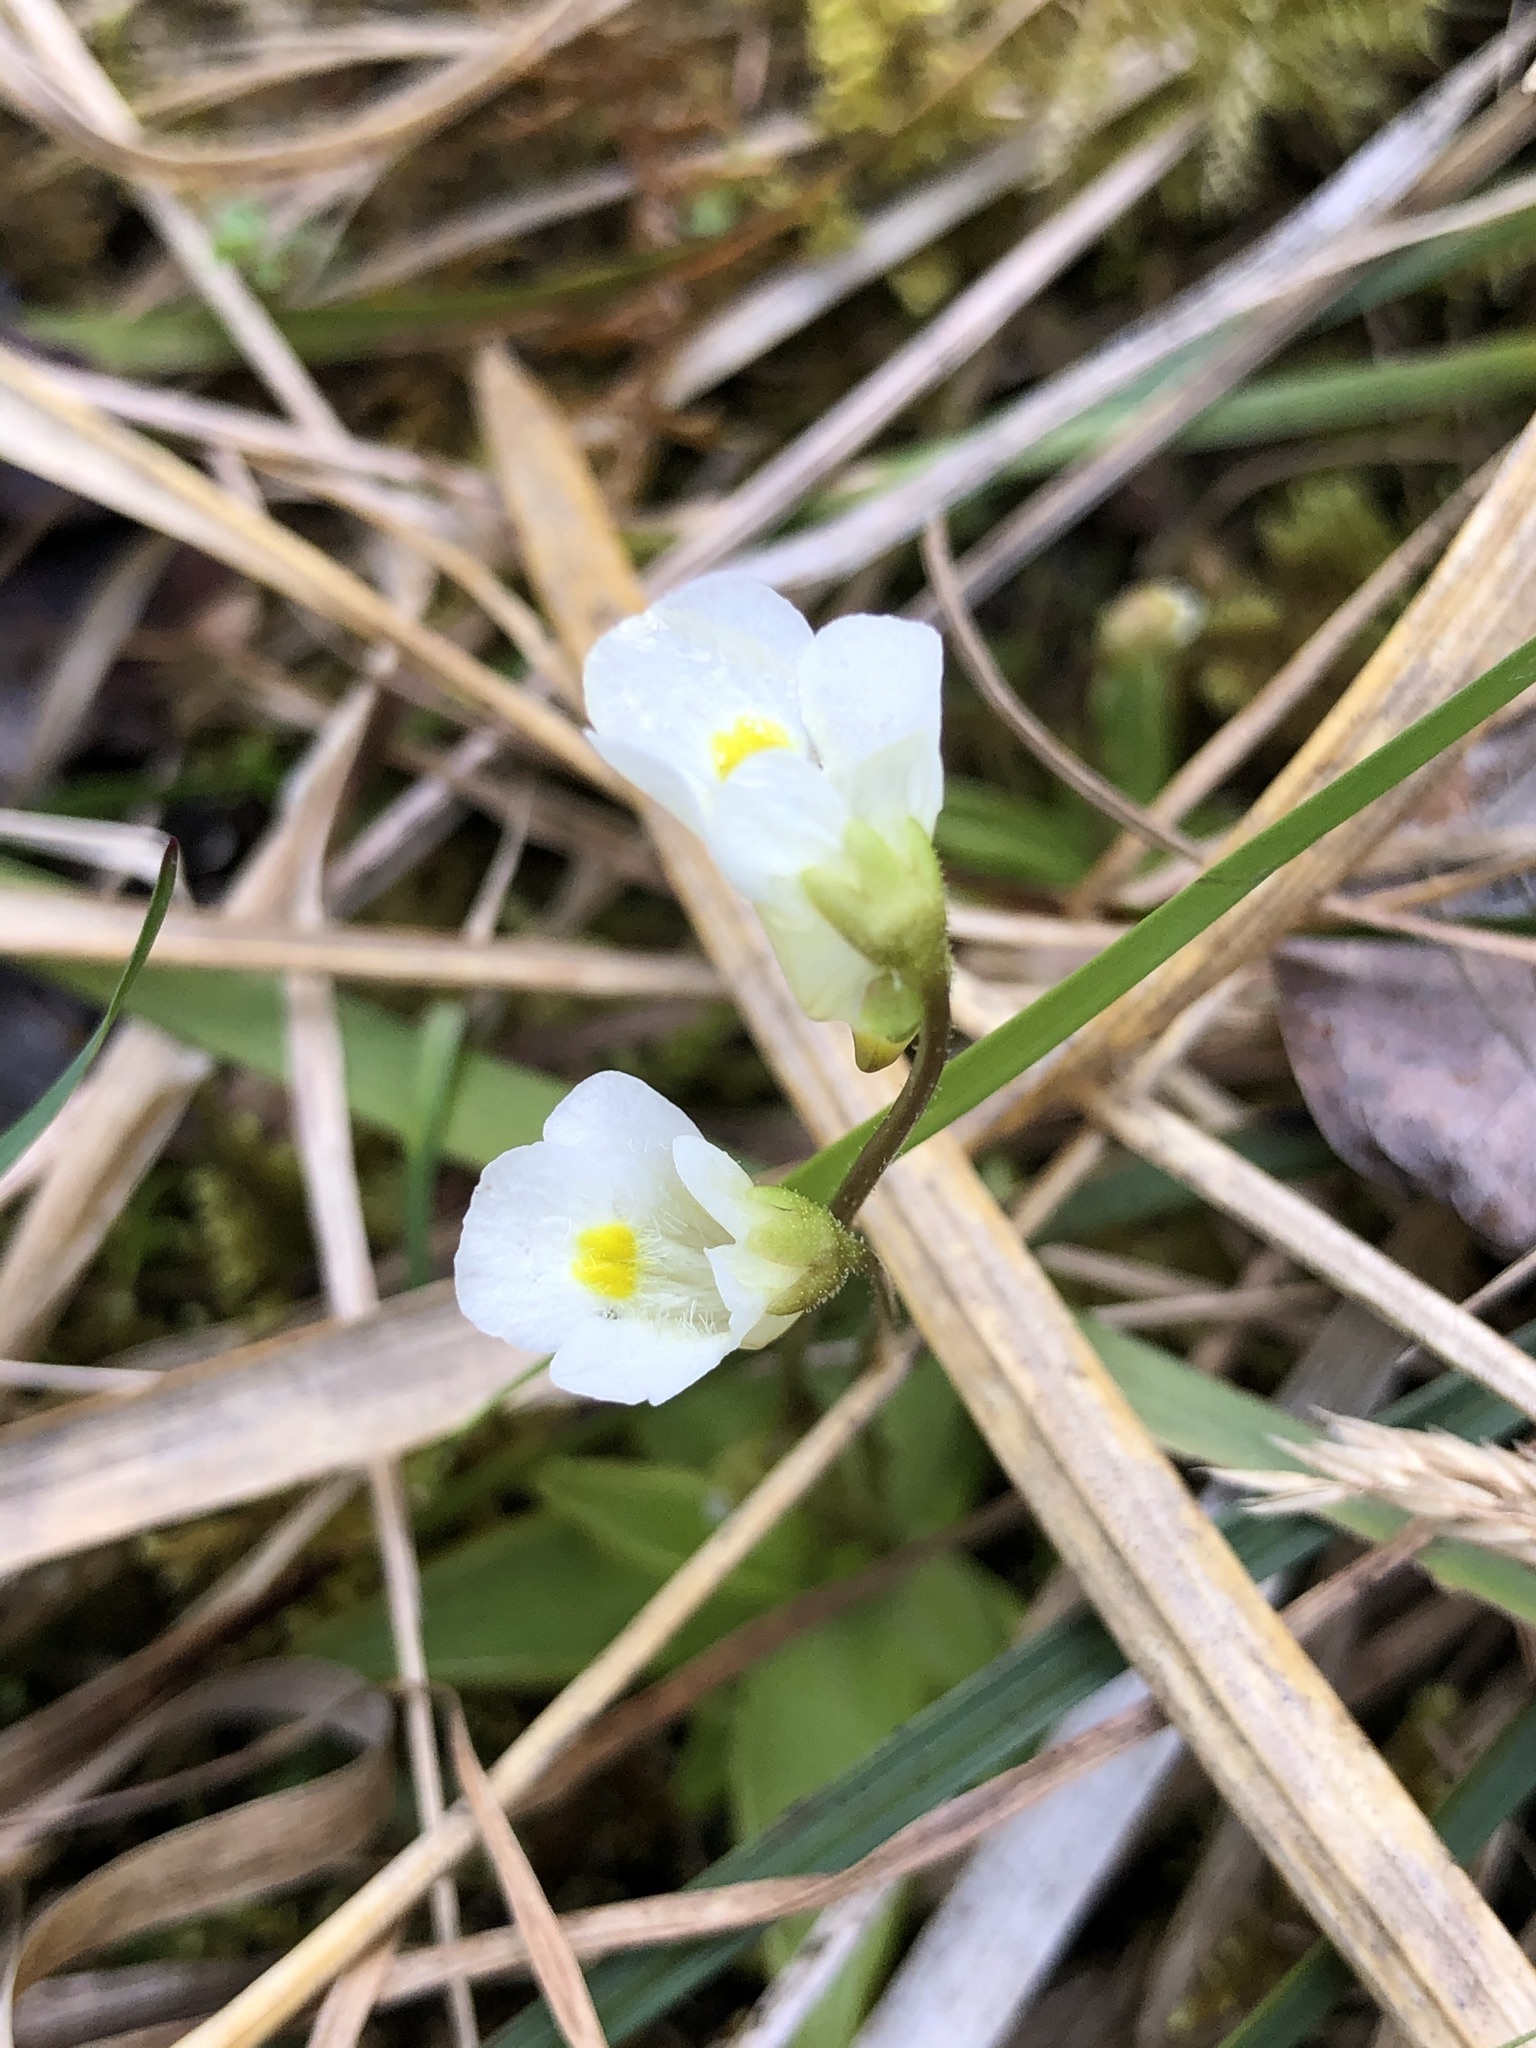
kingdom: Plantae
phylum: Tracheophyta
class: Magnoliopsida
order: Lamiales
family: Lentibulariaceae
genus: Pinguicula
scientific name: Pinguicula alpina
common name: Alpine butterwort
